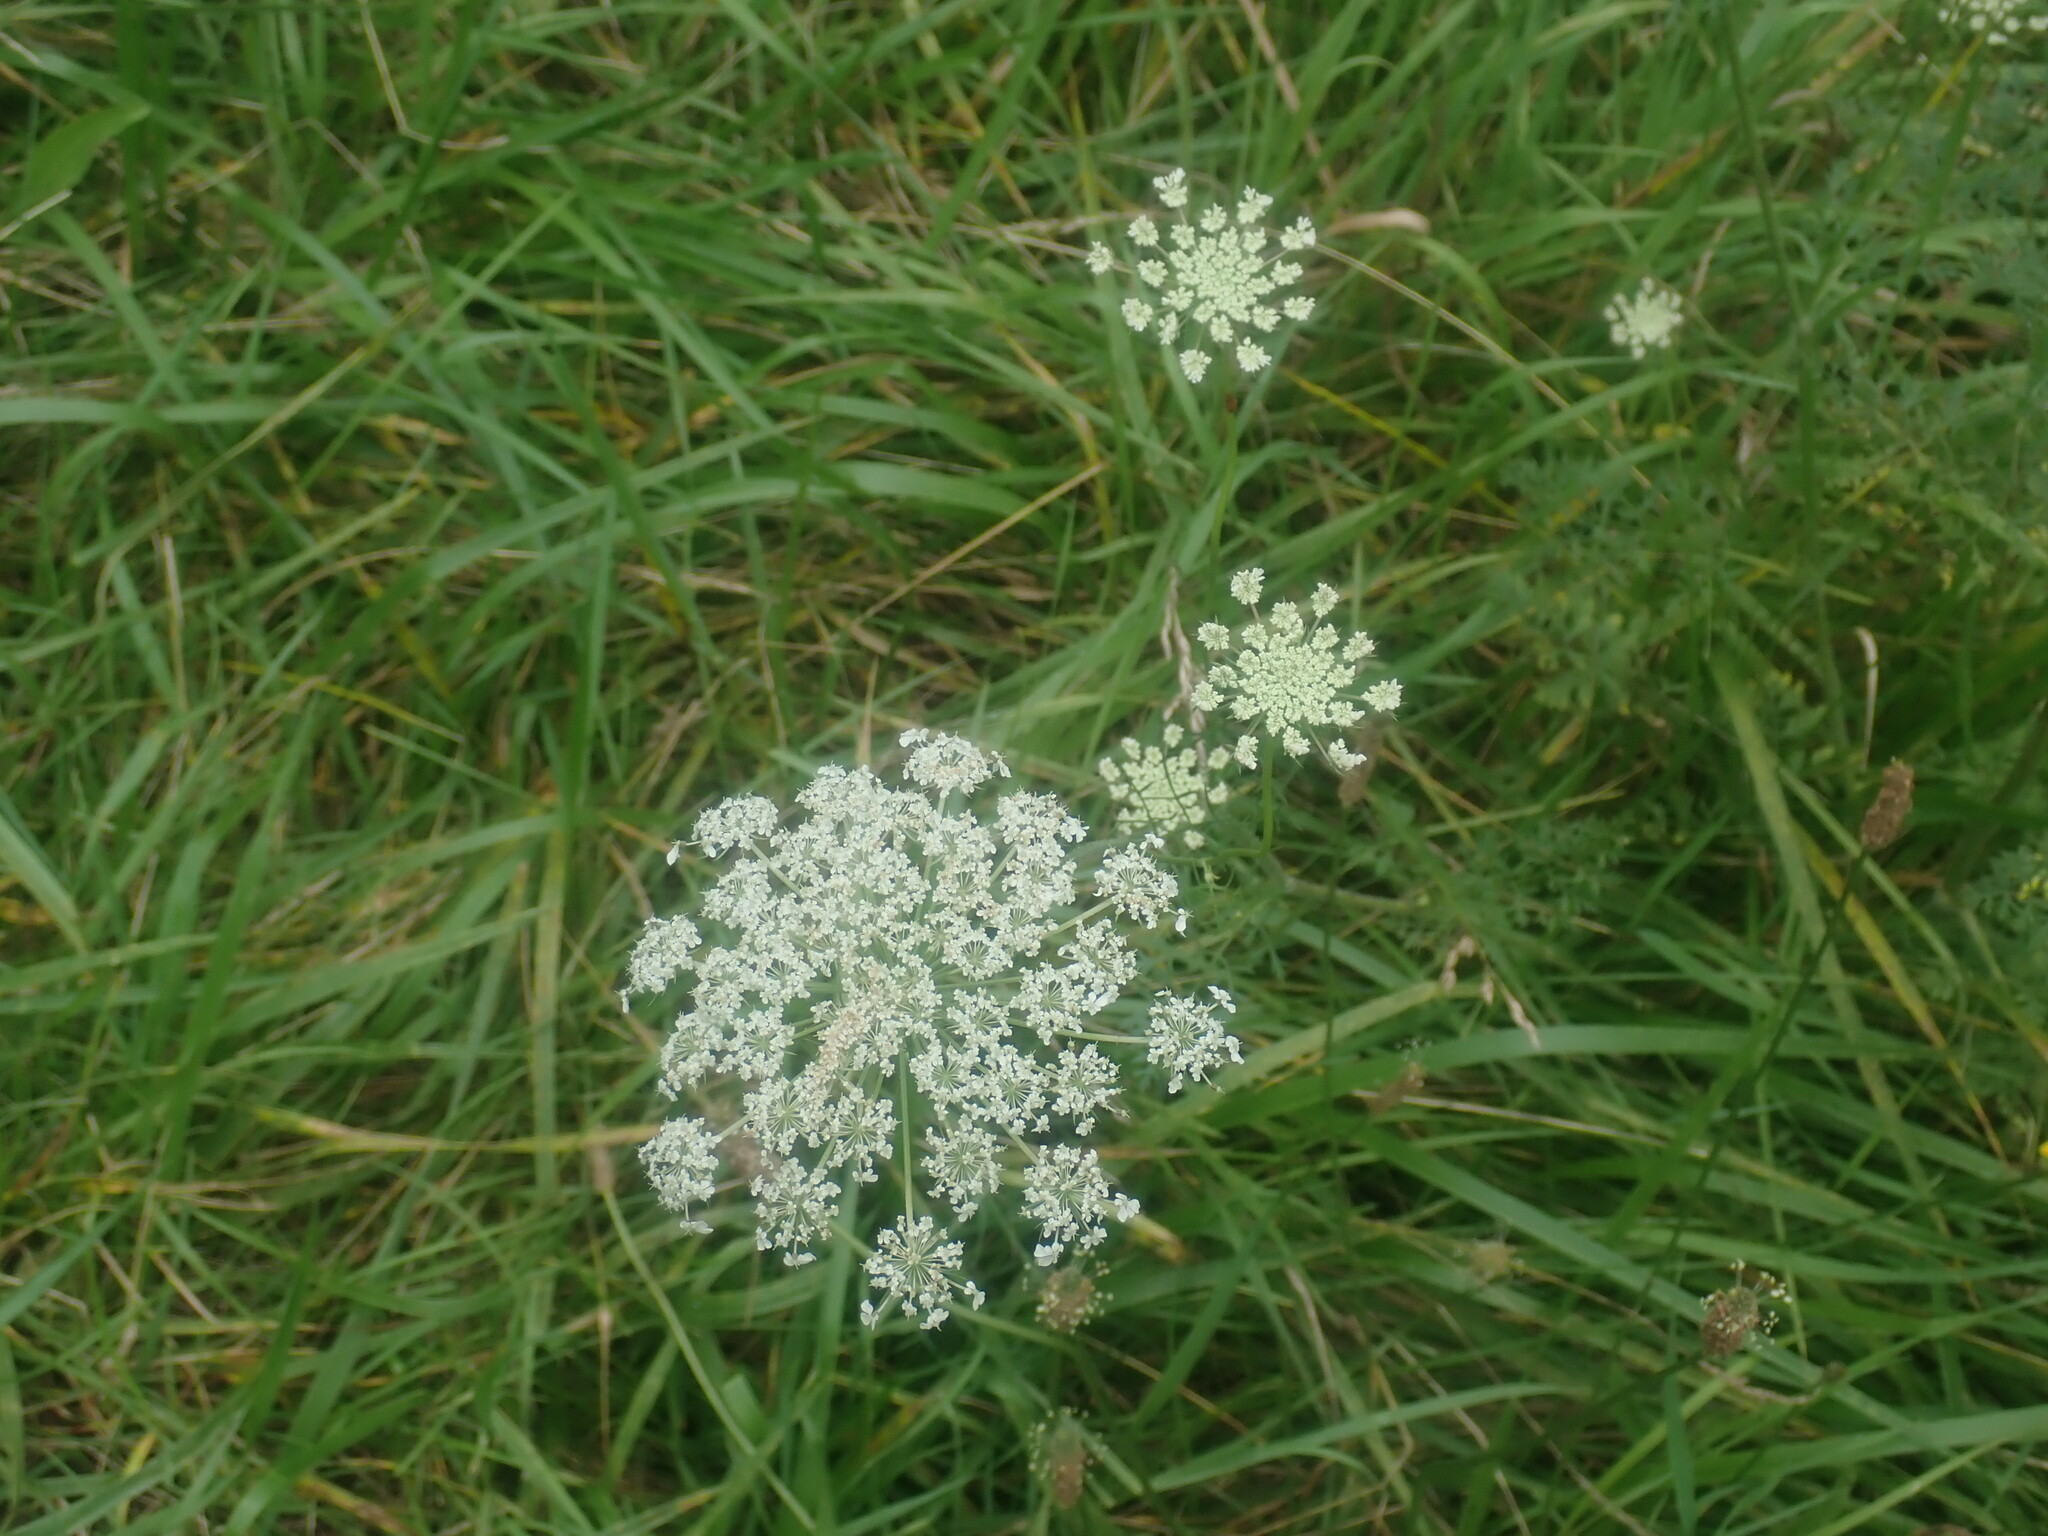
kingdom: Plantae
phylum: Tracheophyta
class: Magnoliopsida
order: Apiales
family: Apiaceae
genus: Daucus
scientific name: Daucus carota
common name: Wild carrot
